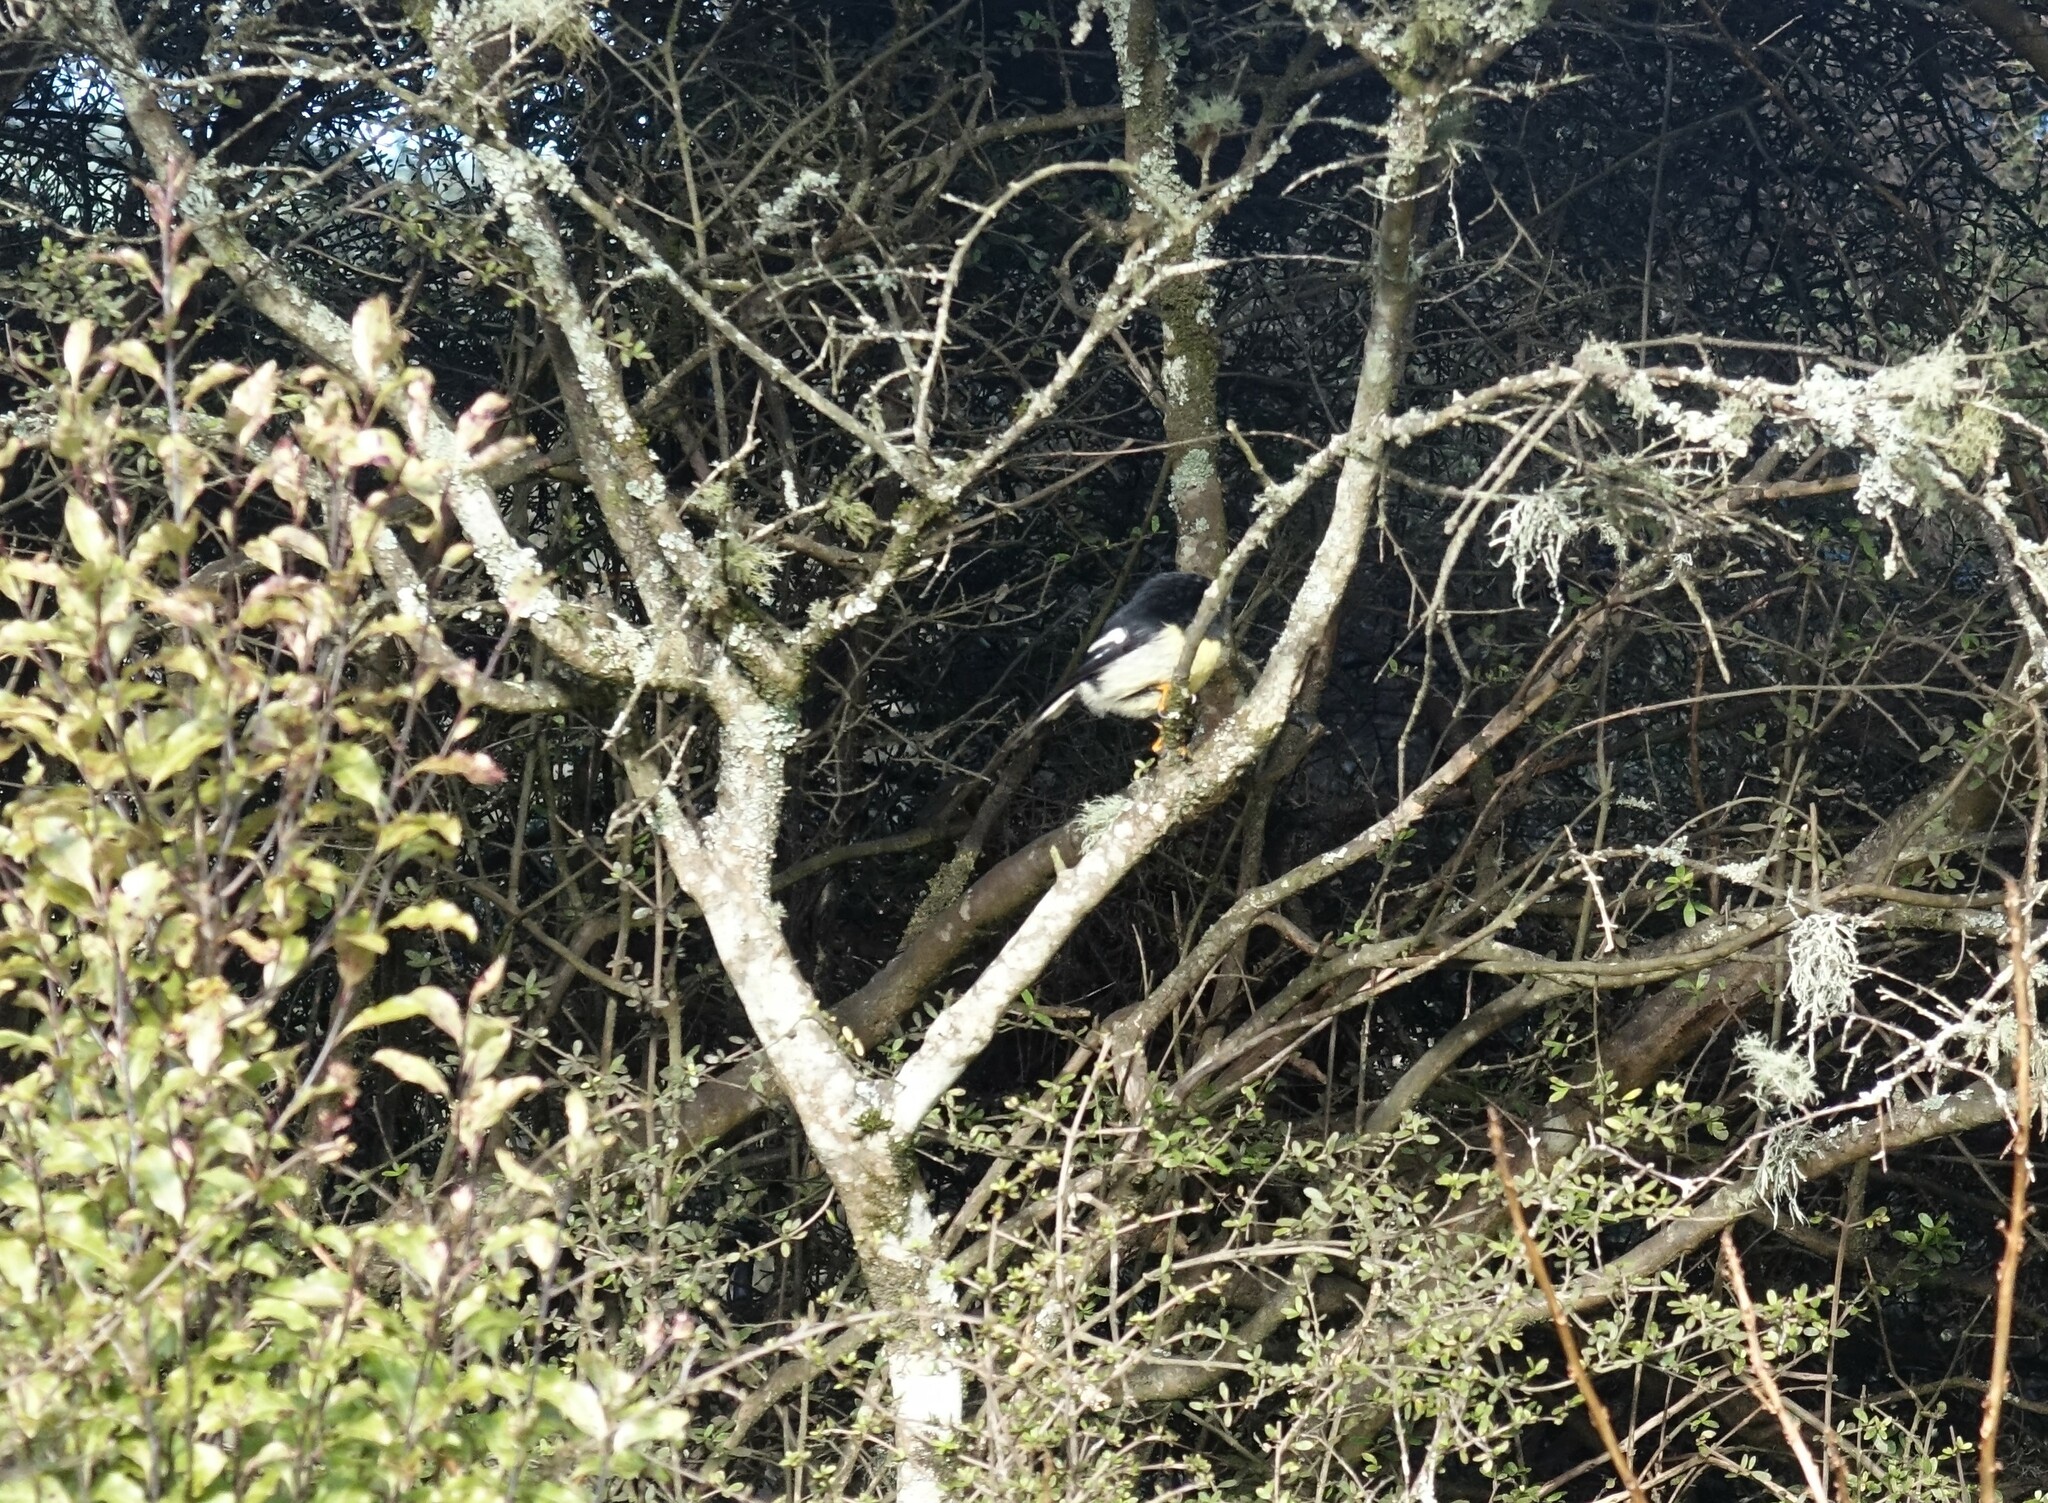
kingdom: Animalia
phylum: Chordata
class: Aves
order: Passeriformes
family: Petroicidae
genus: Petroica
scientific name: Petroica macrocephala
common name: Tomtit
